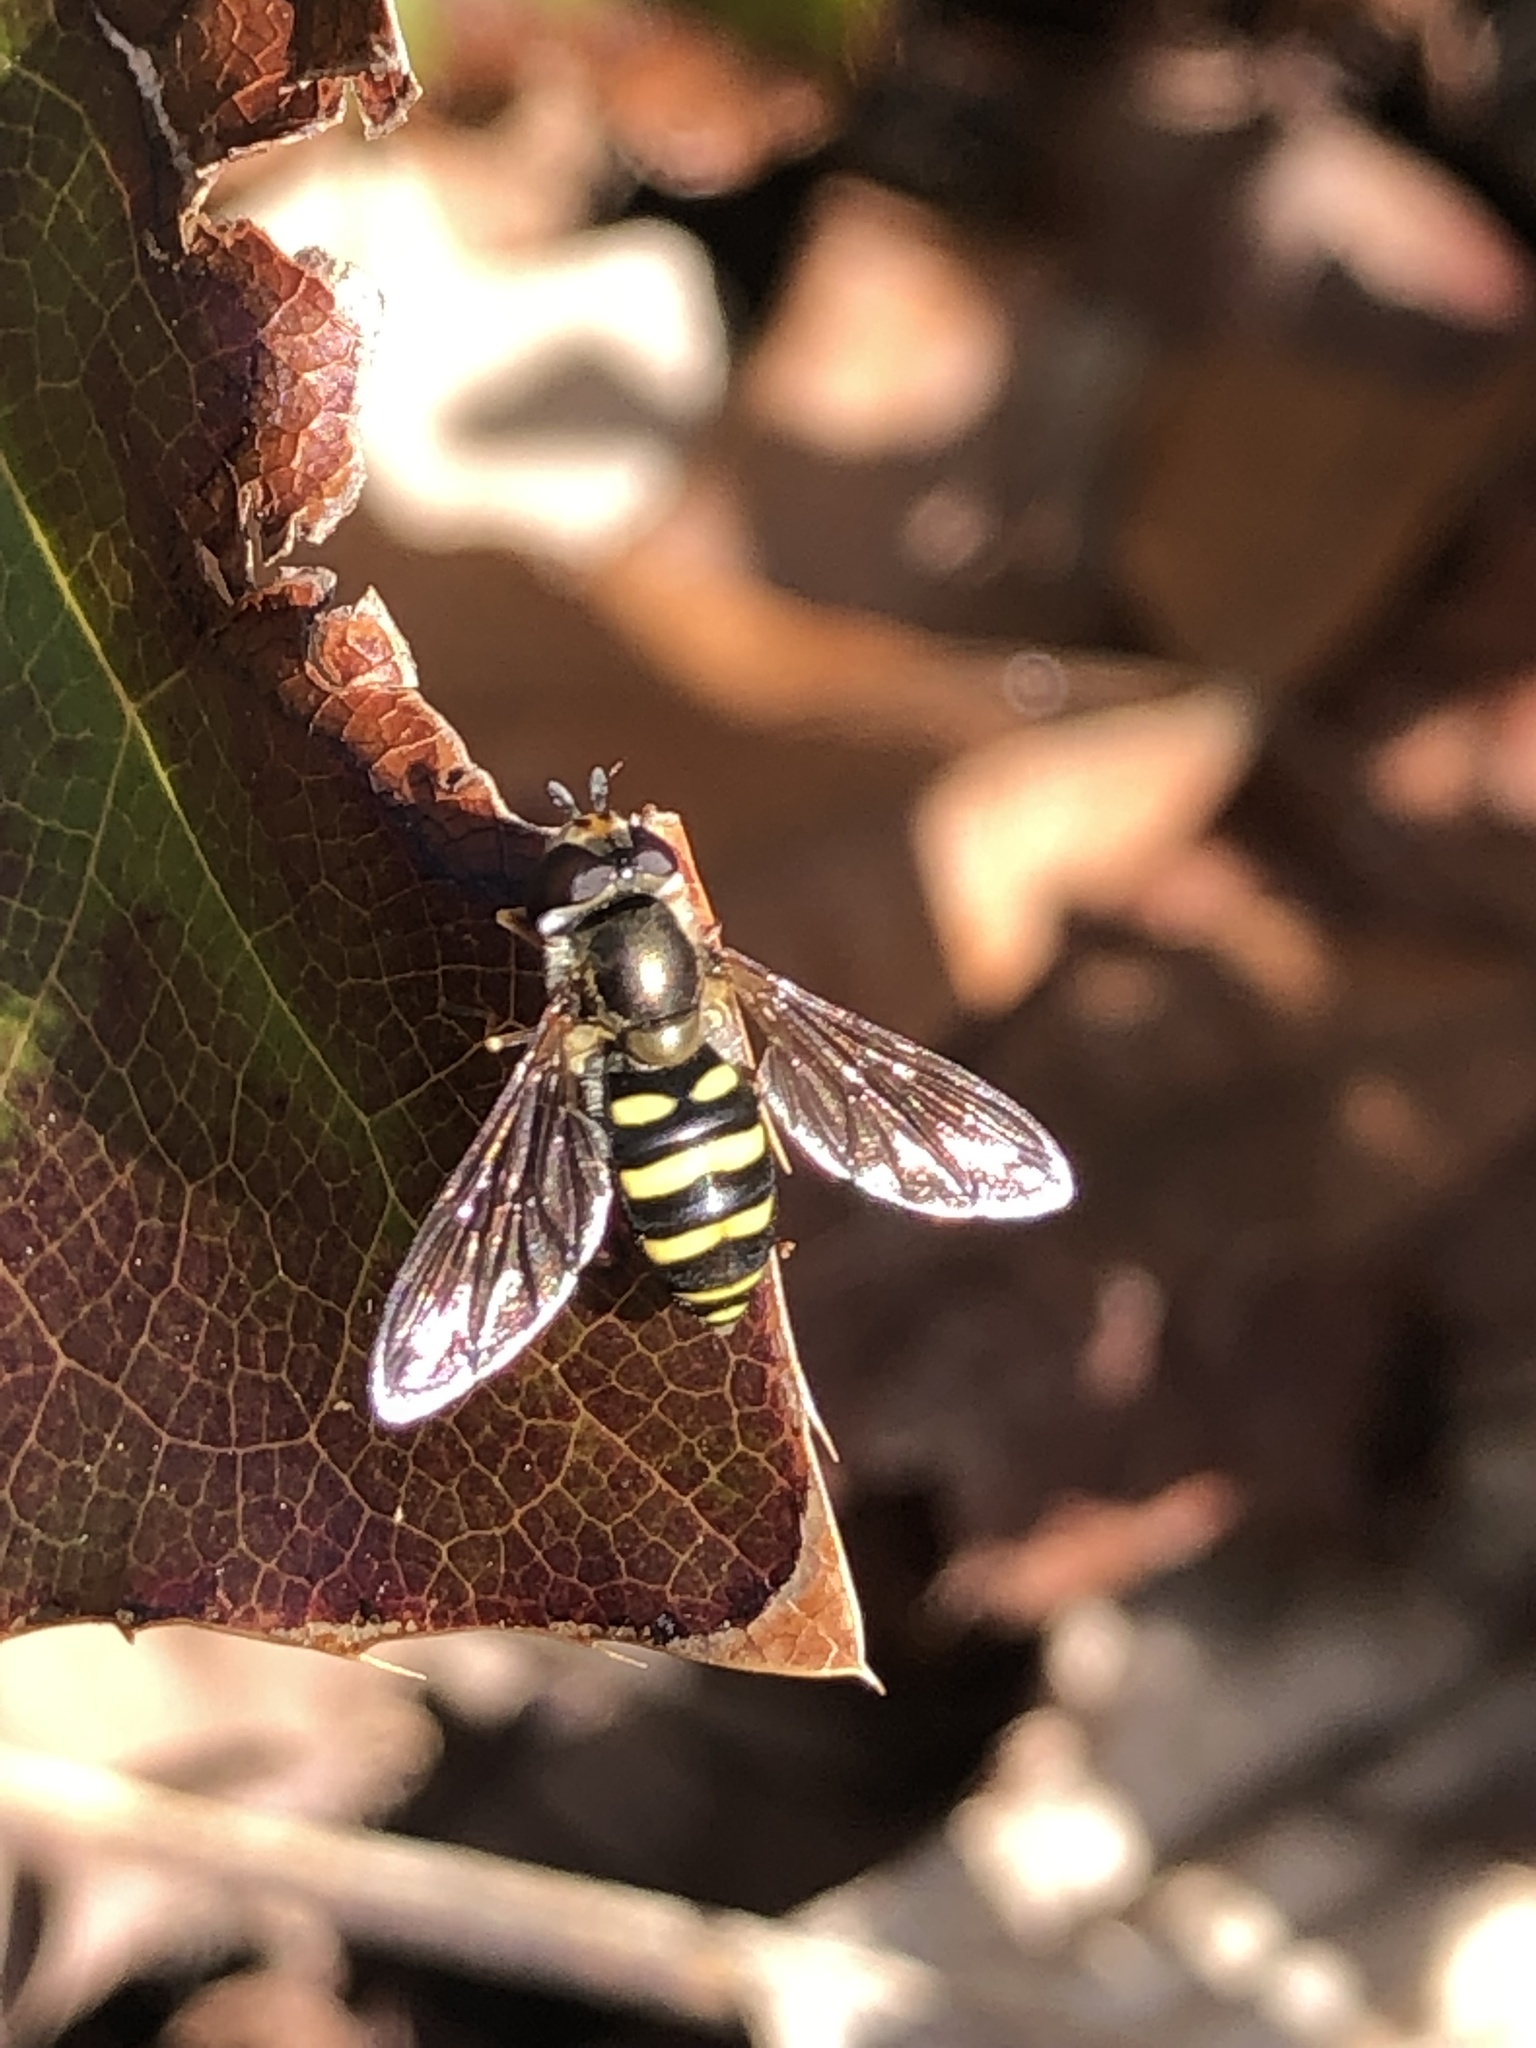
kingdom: Animalia
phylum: Arthropoda
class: Insecta
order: Diptera
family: Syrphidae
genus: Eupeodes
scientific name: Eupeodes
